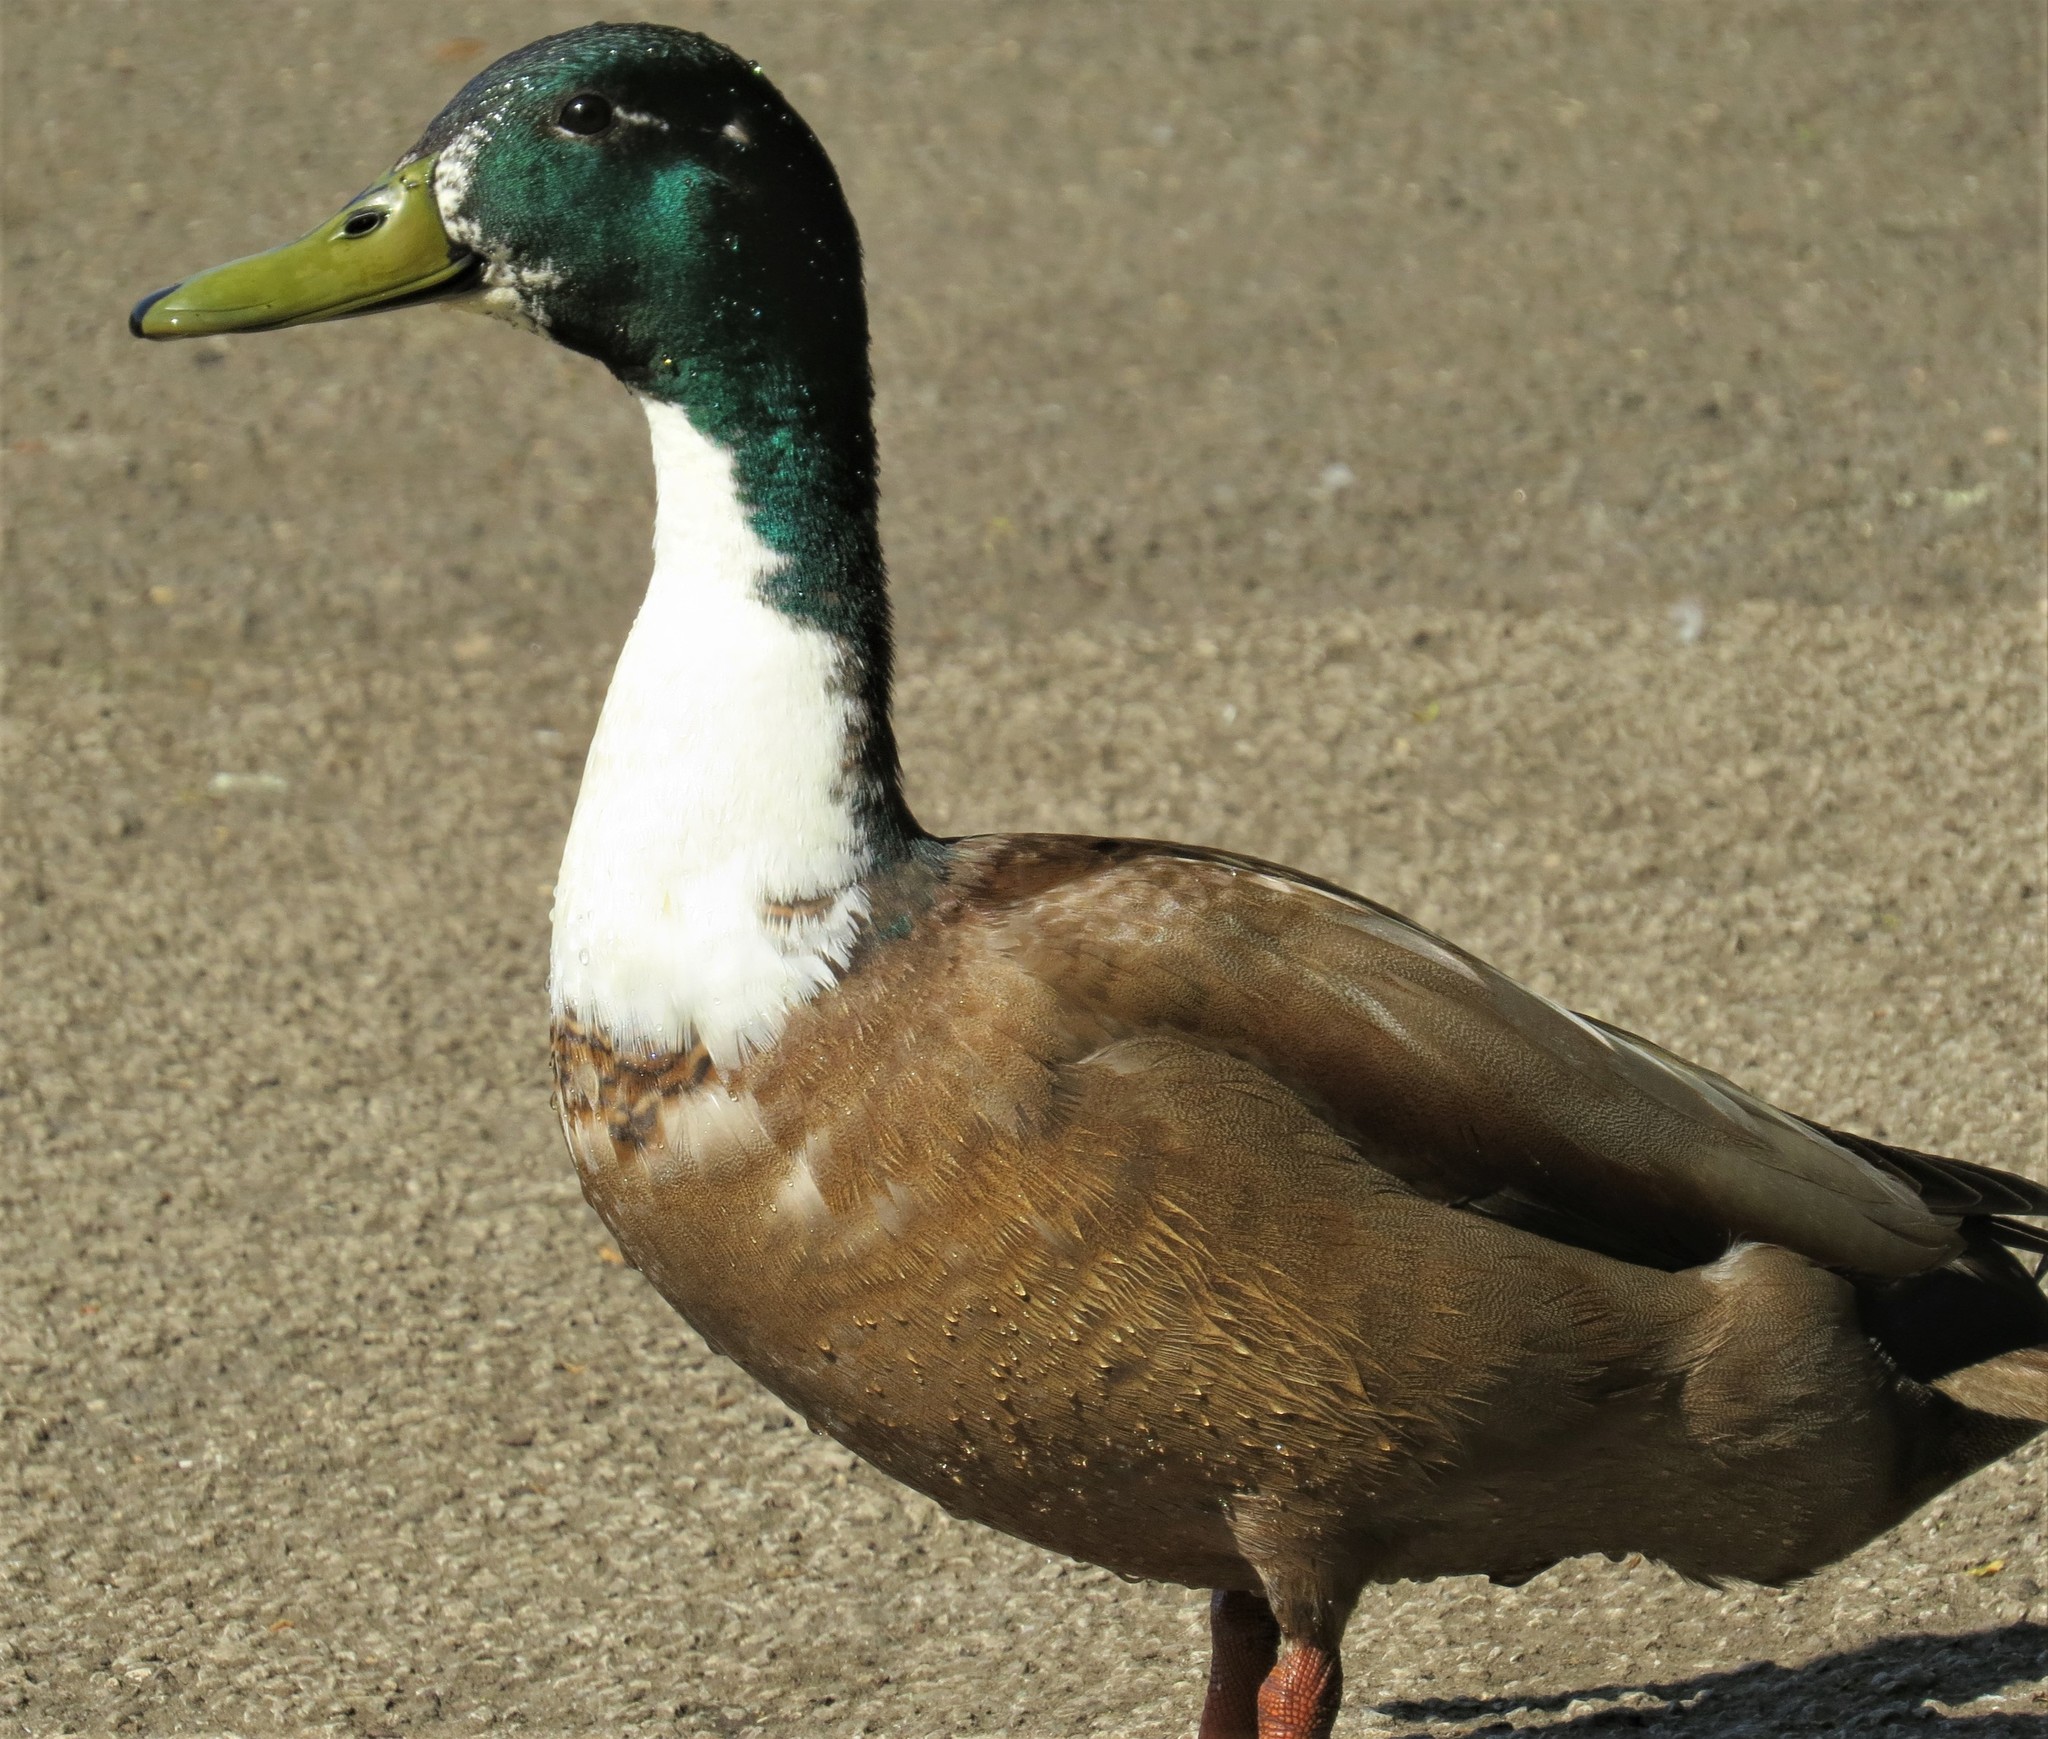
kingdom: Animalia
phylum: Chordata
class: Aves
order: Anseriformes
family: Anatidae
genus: Anas
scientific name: Anas platyrhynchos
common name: Mallard
